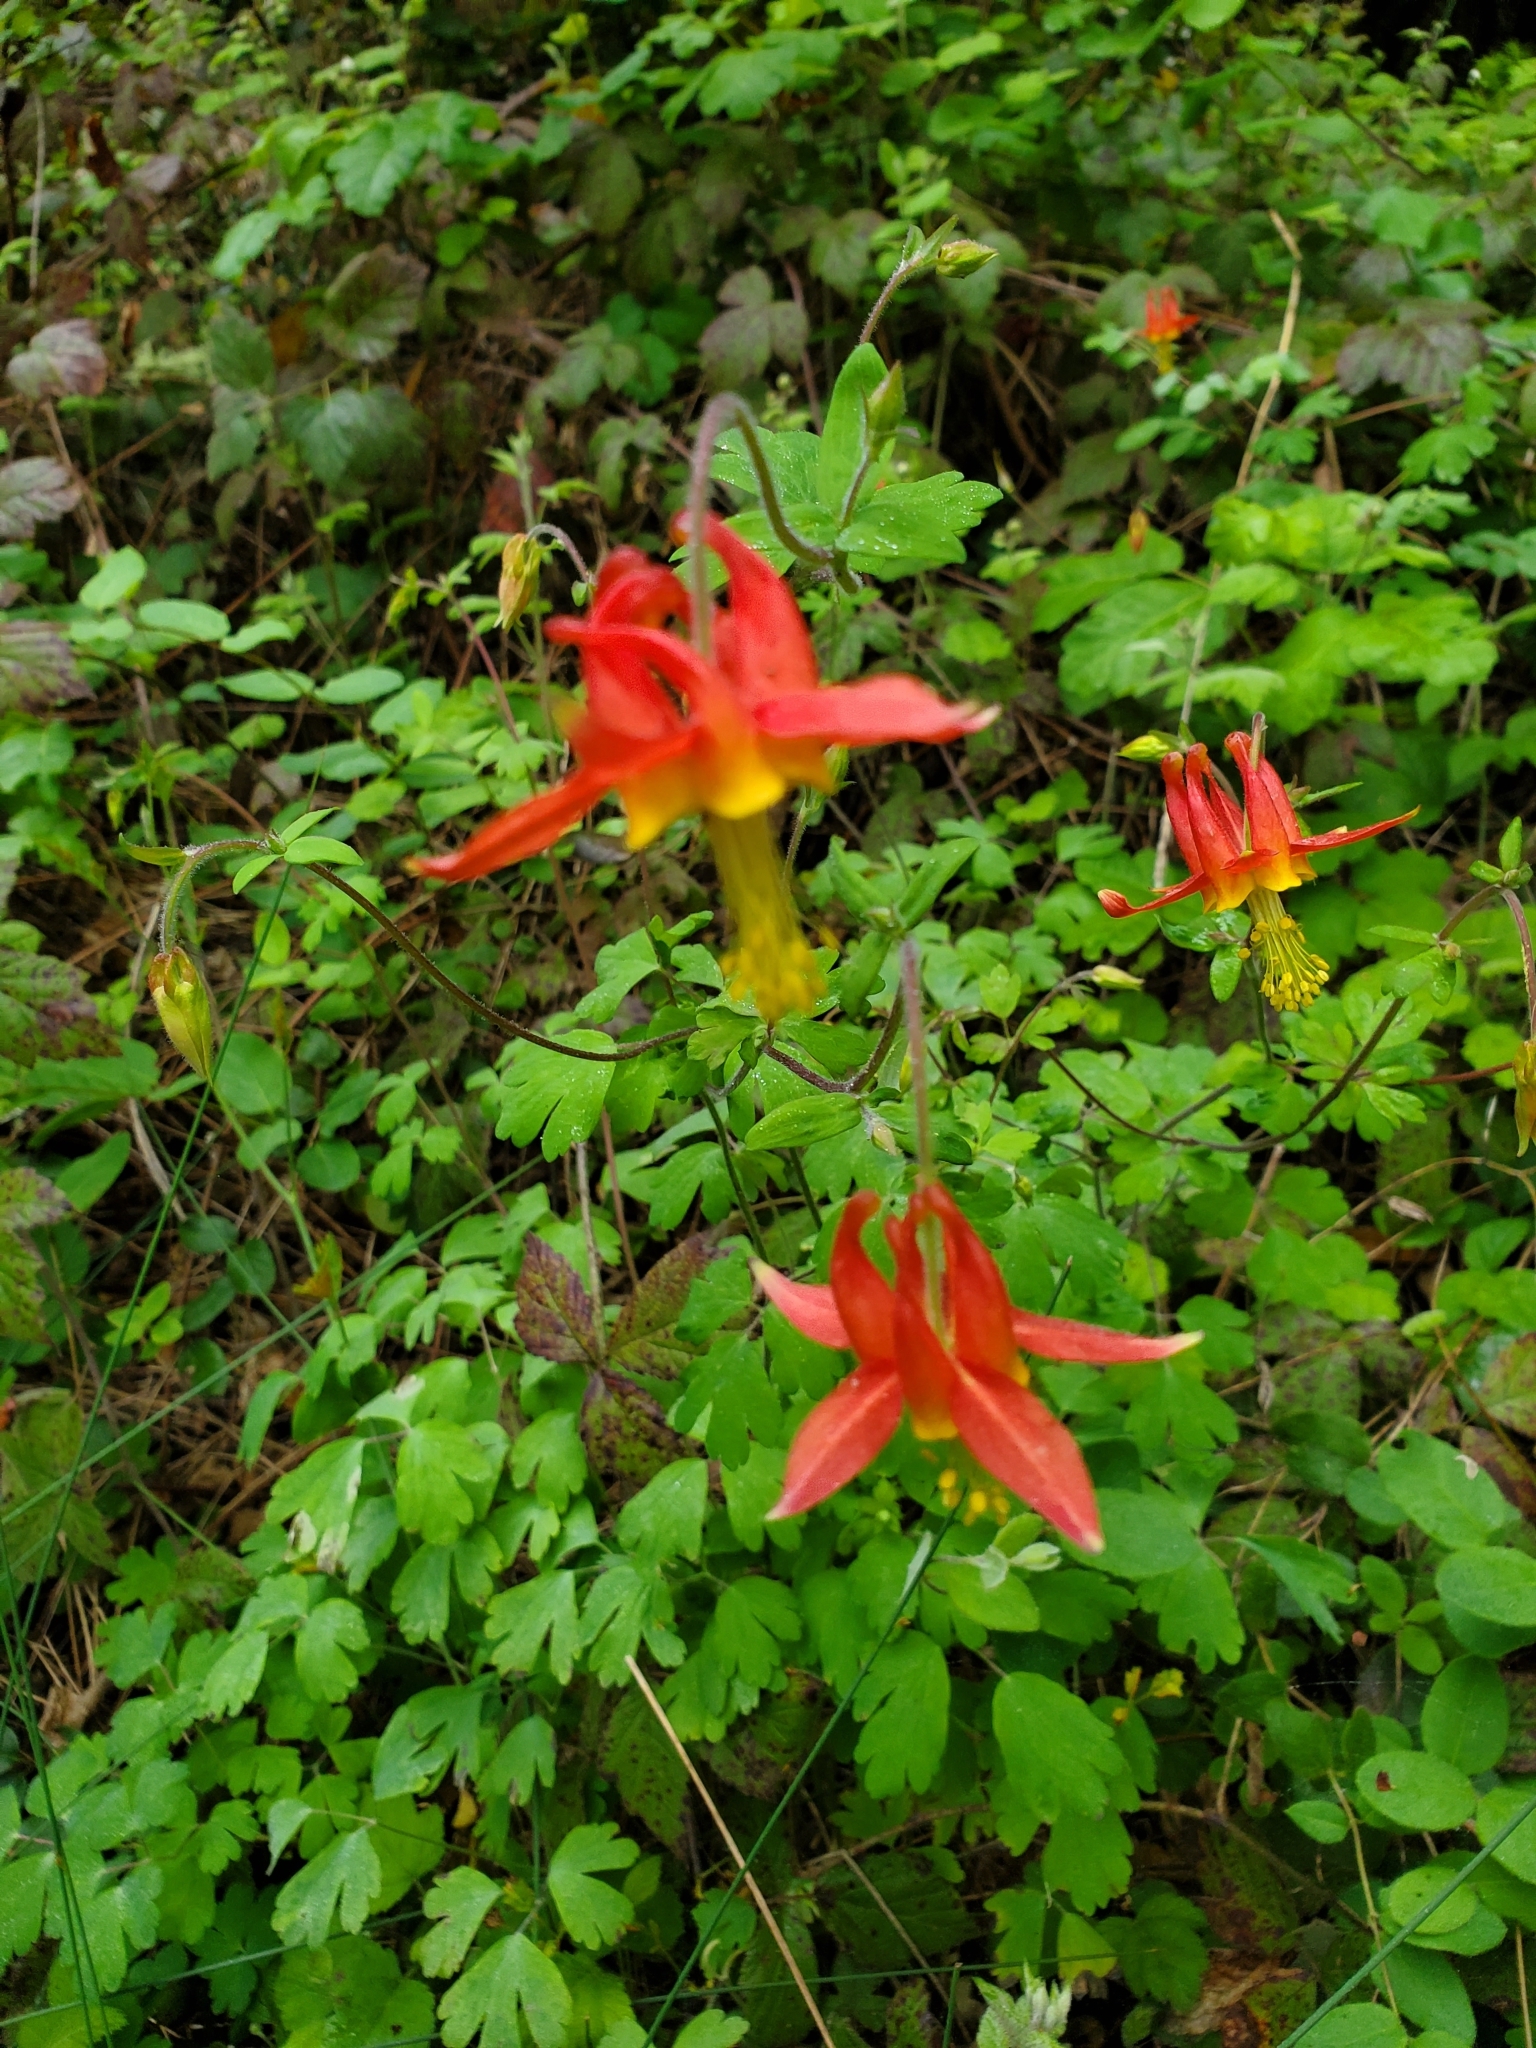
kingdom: Plantae
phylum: Tracheophyta
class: Magnoliopsida
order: Ranunculales
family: Ranunculaceae
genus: Aquilegia
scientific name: Aquilegia formosa
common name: Sitka columbine
